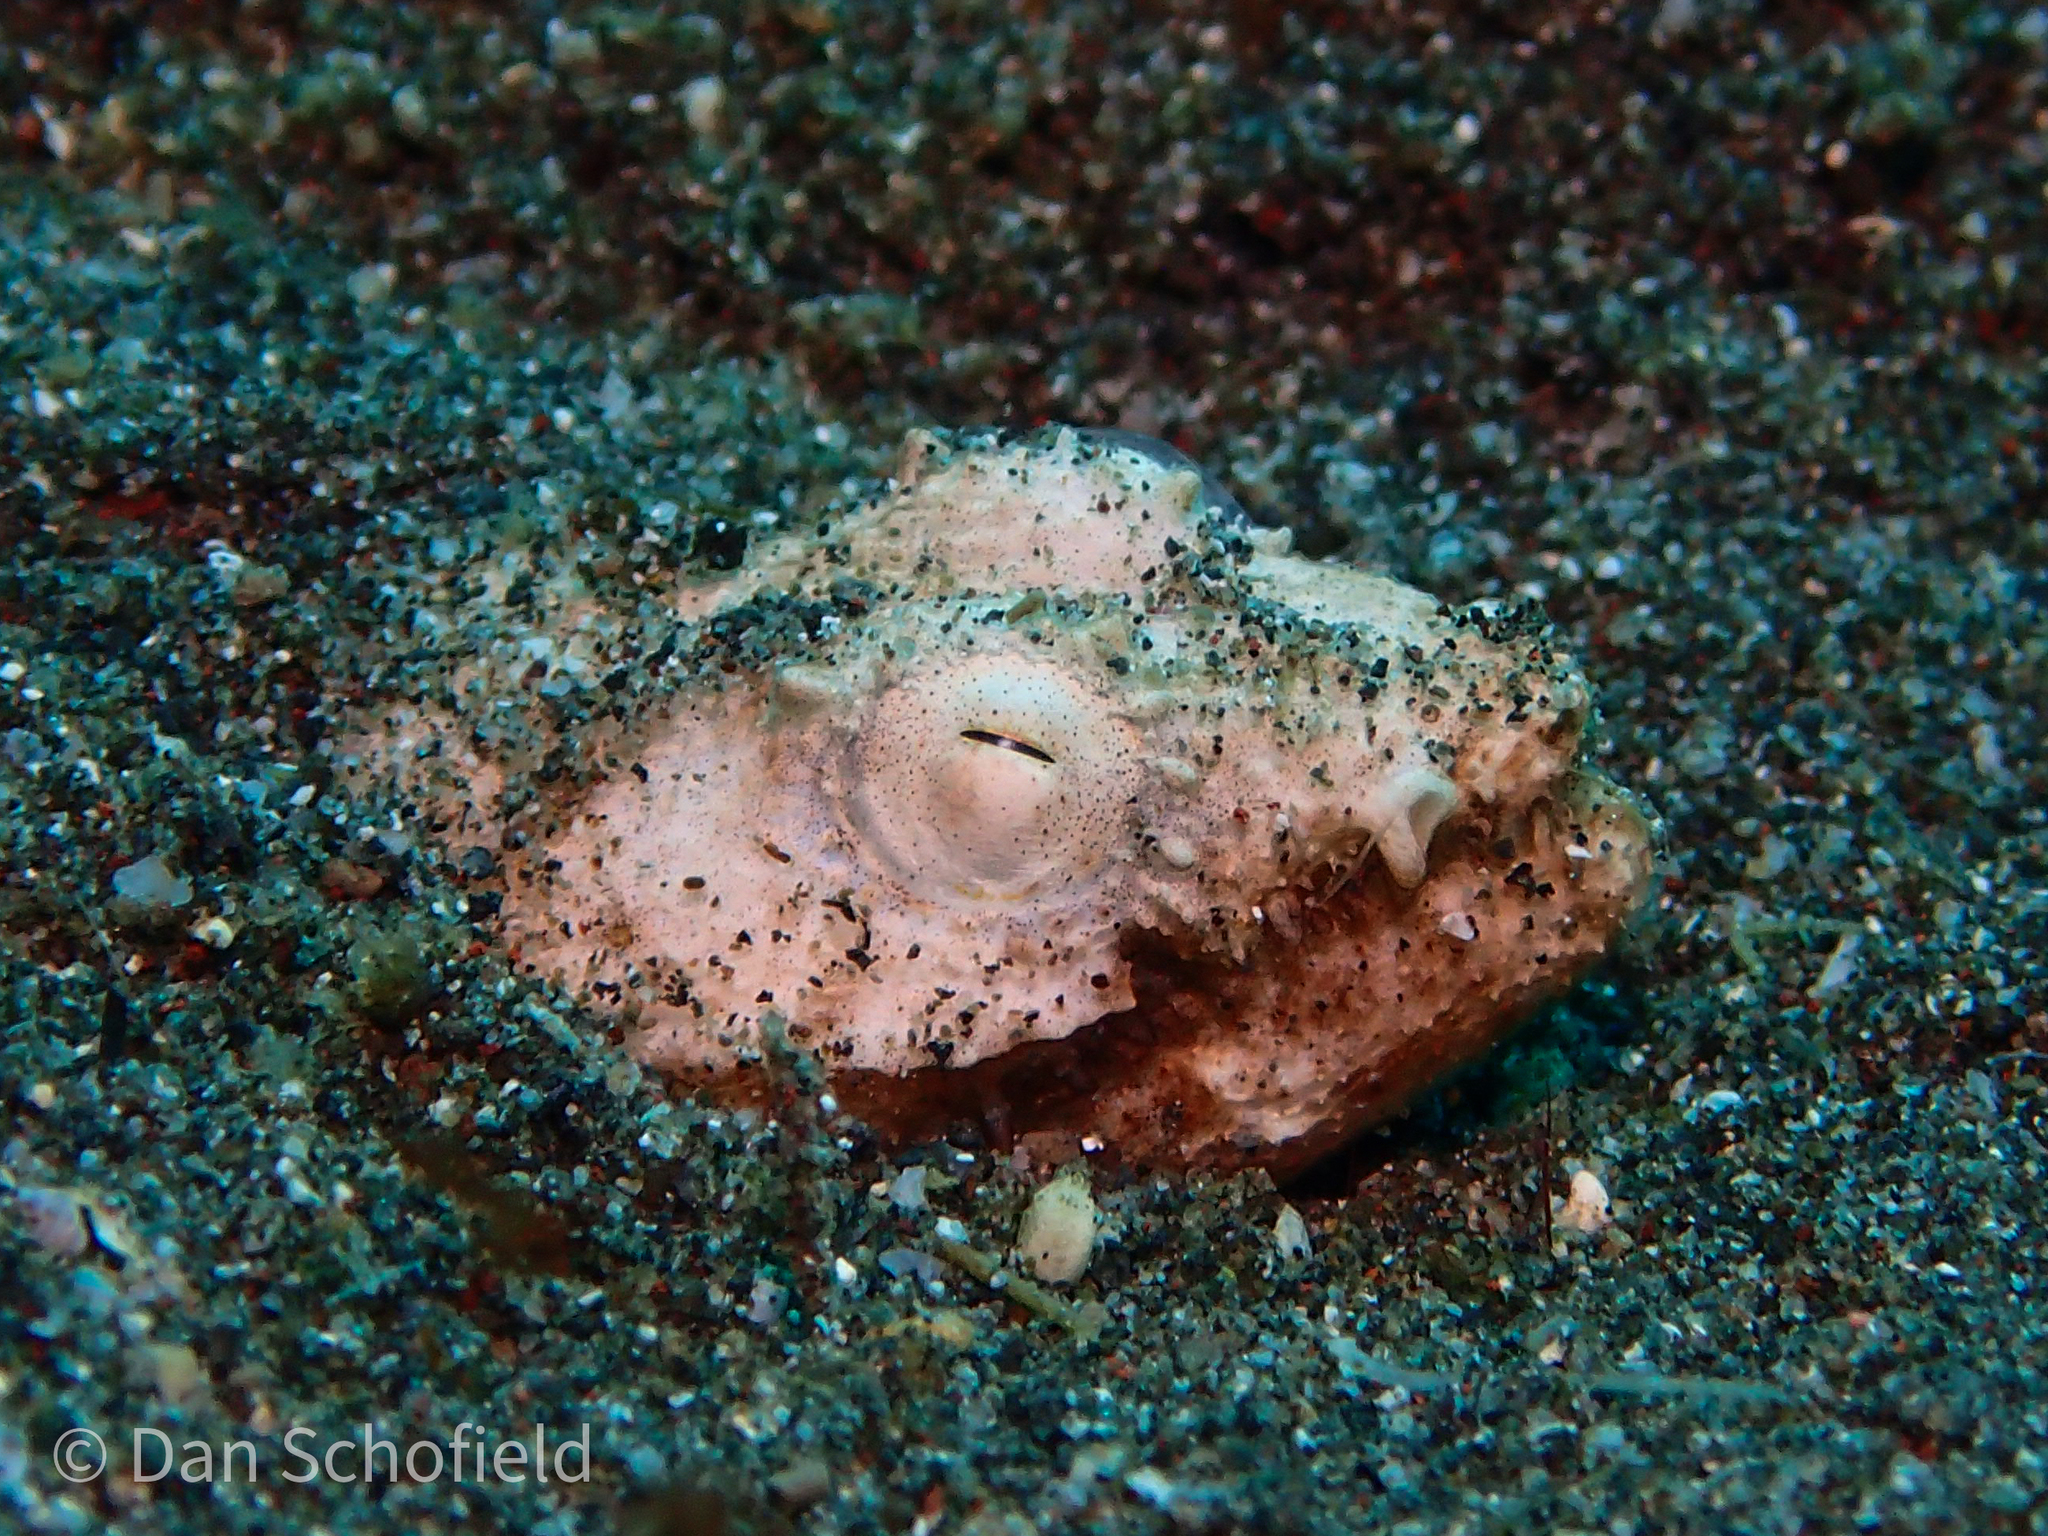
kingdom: Animalia
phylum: Chordata
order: Anguilliformes
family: Ophichthidae
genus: Brachysomophis
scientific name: Brachysomophis crocodilinus
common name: Crocodile snake eel
